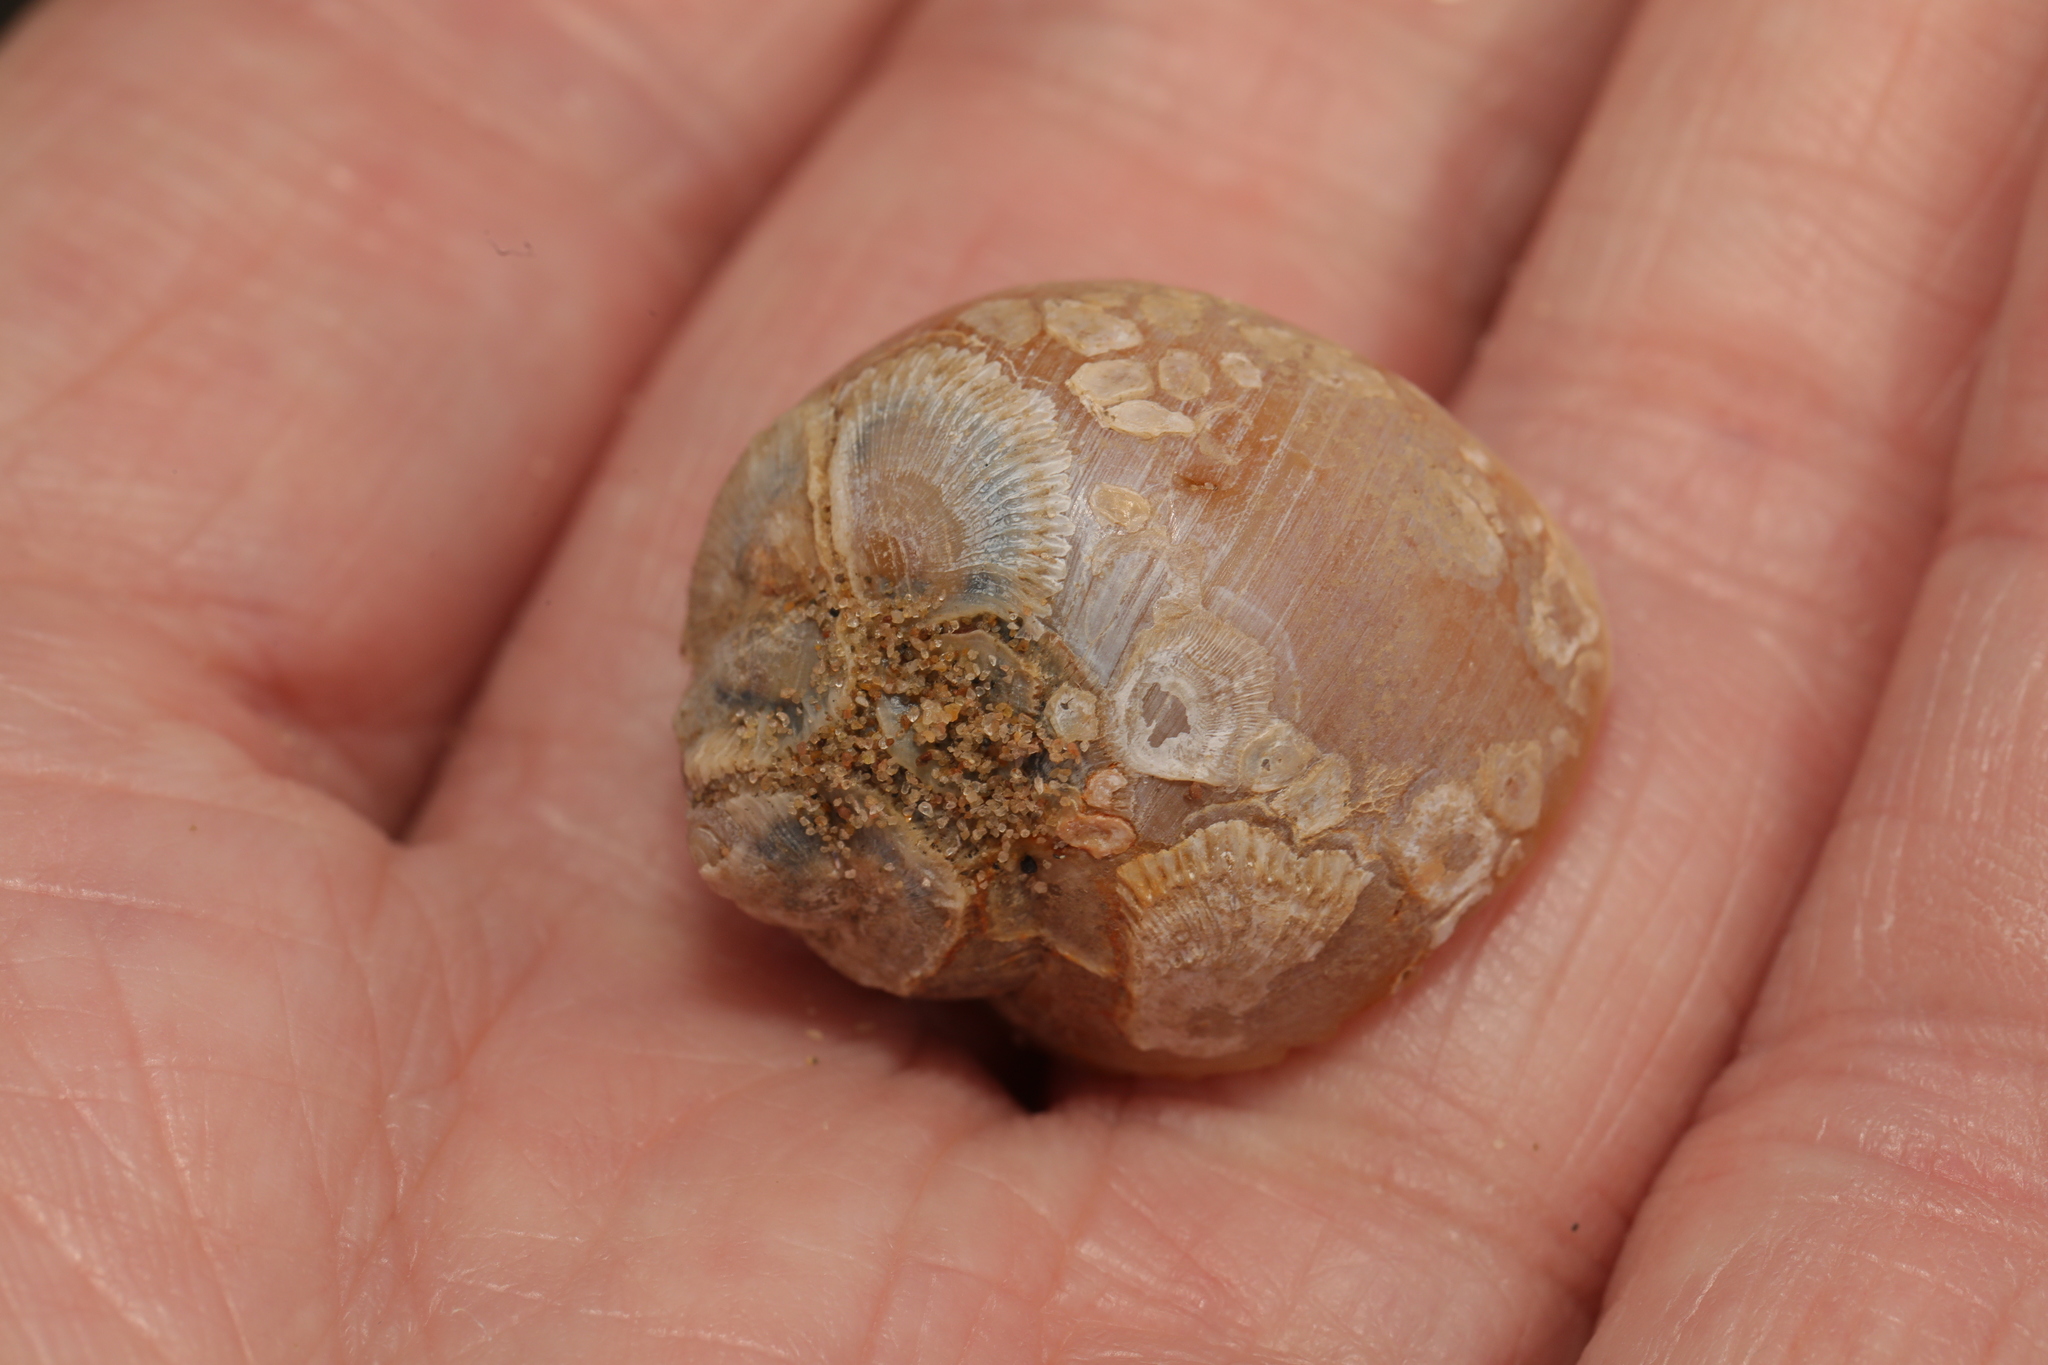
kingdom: Animalia
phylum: Mollusca
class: Gastropoda
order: Littorinimorpha
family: Naticidae
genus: Euspira
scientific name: Euspira catena
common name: Necklace shell
